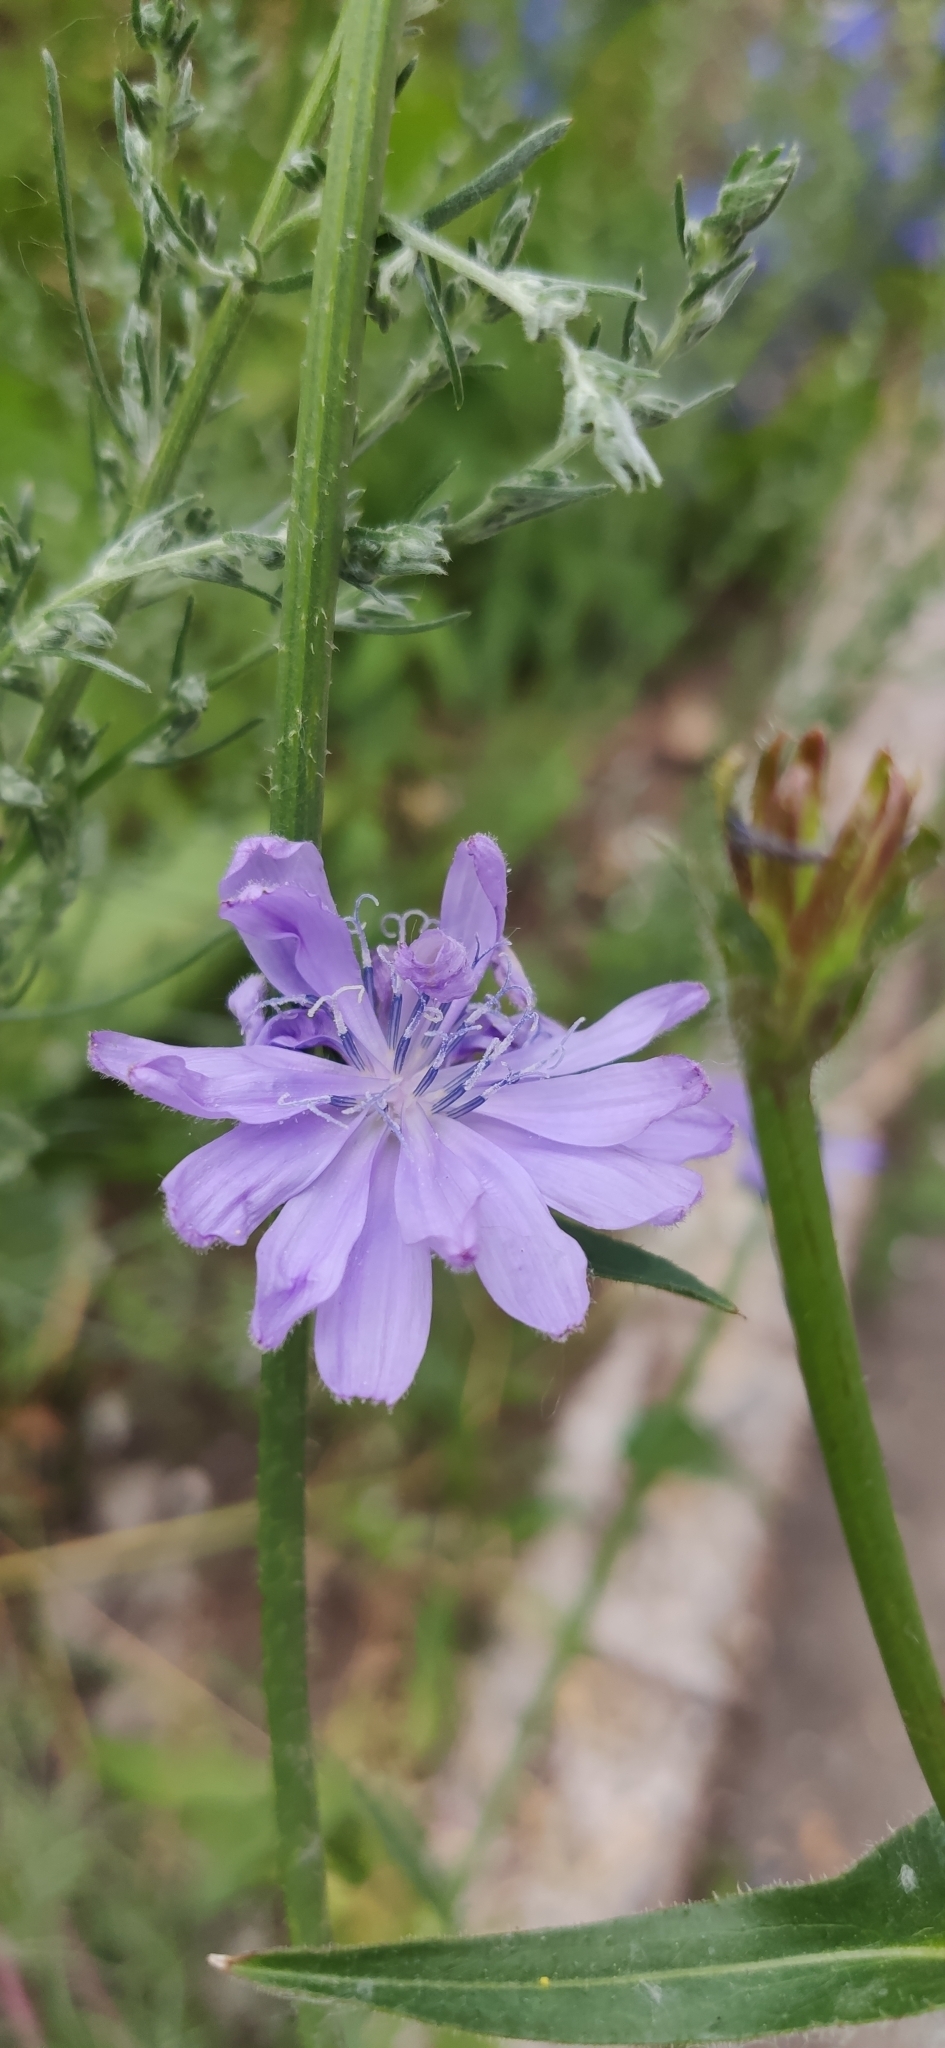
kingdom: Plantae
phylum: Tracheophyta
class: Magnoliopsida
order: Asterales
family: Asteraceae
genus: Cichorium
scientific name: Cichorium intybus
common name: Chicory
